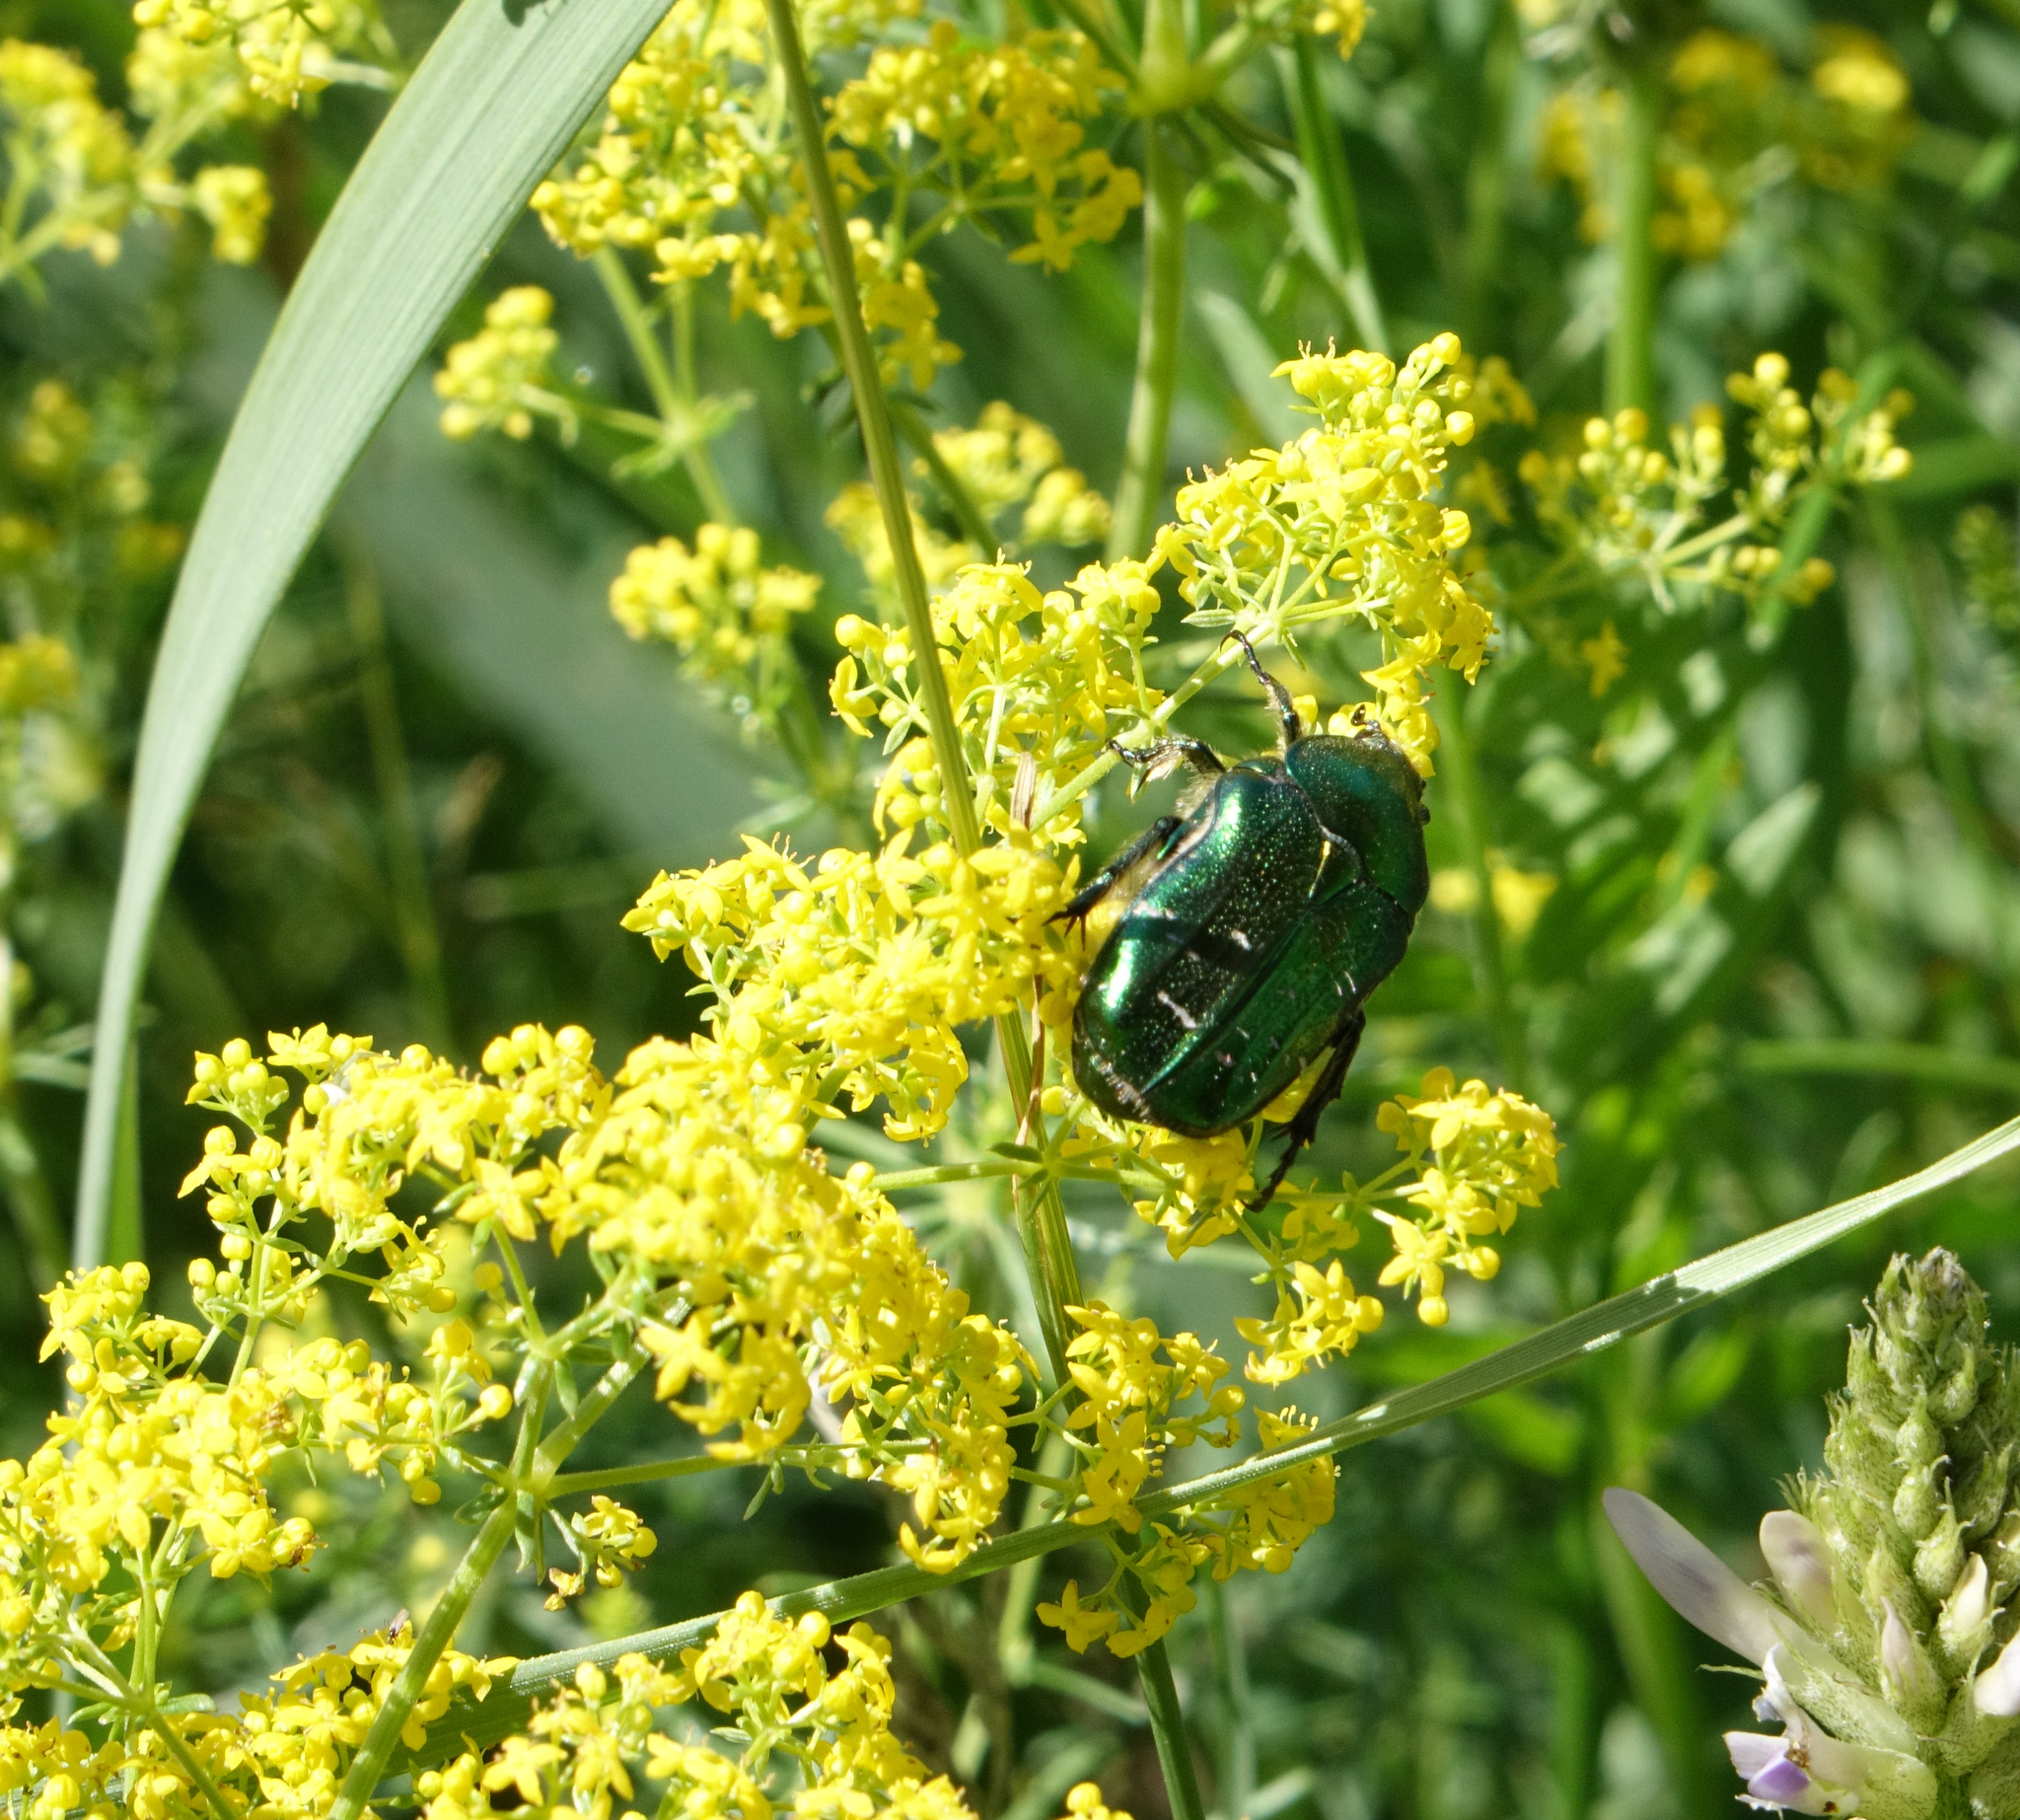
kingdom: Animalia
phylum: Arthropoda
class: Insecta
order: Coleoptera
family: Scarabaeidae
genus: Cetonia
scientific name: Cetonia aurata
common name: Rose chafer
